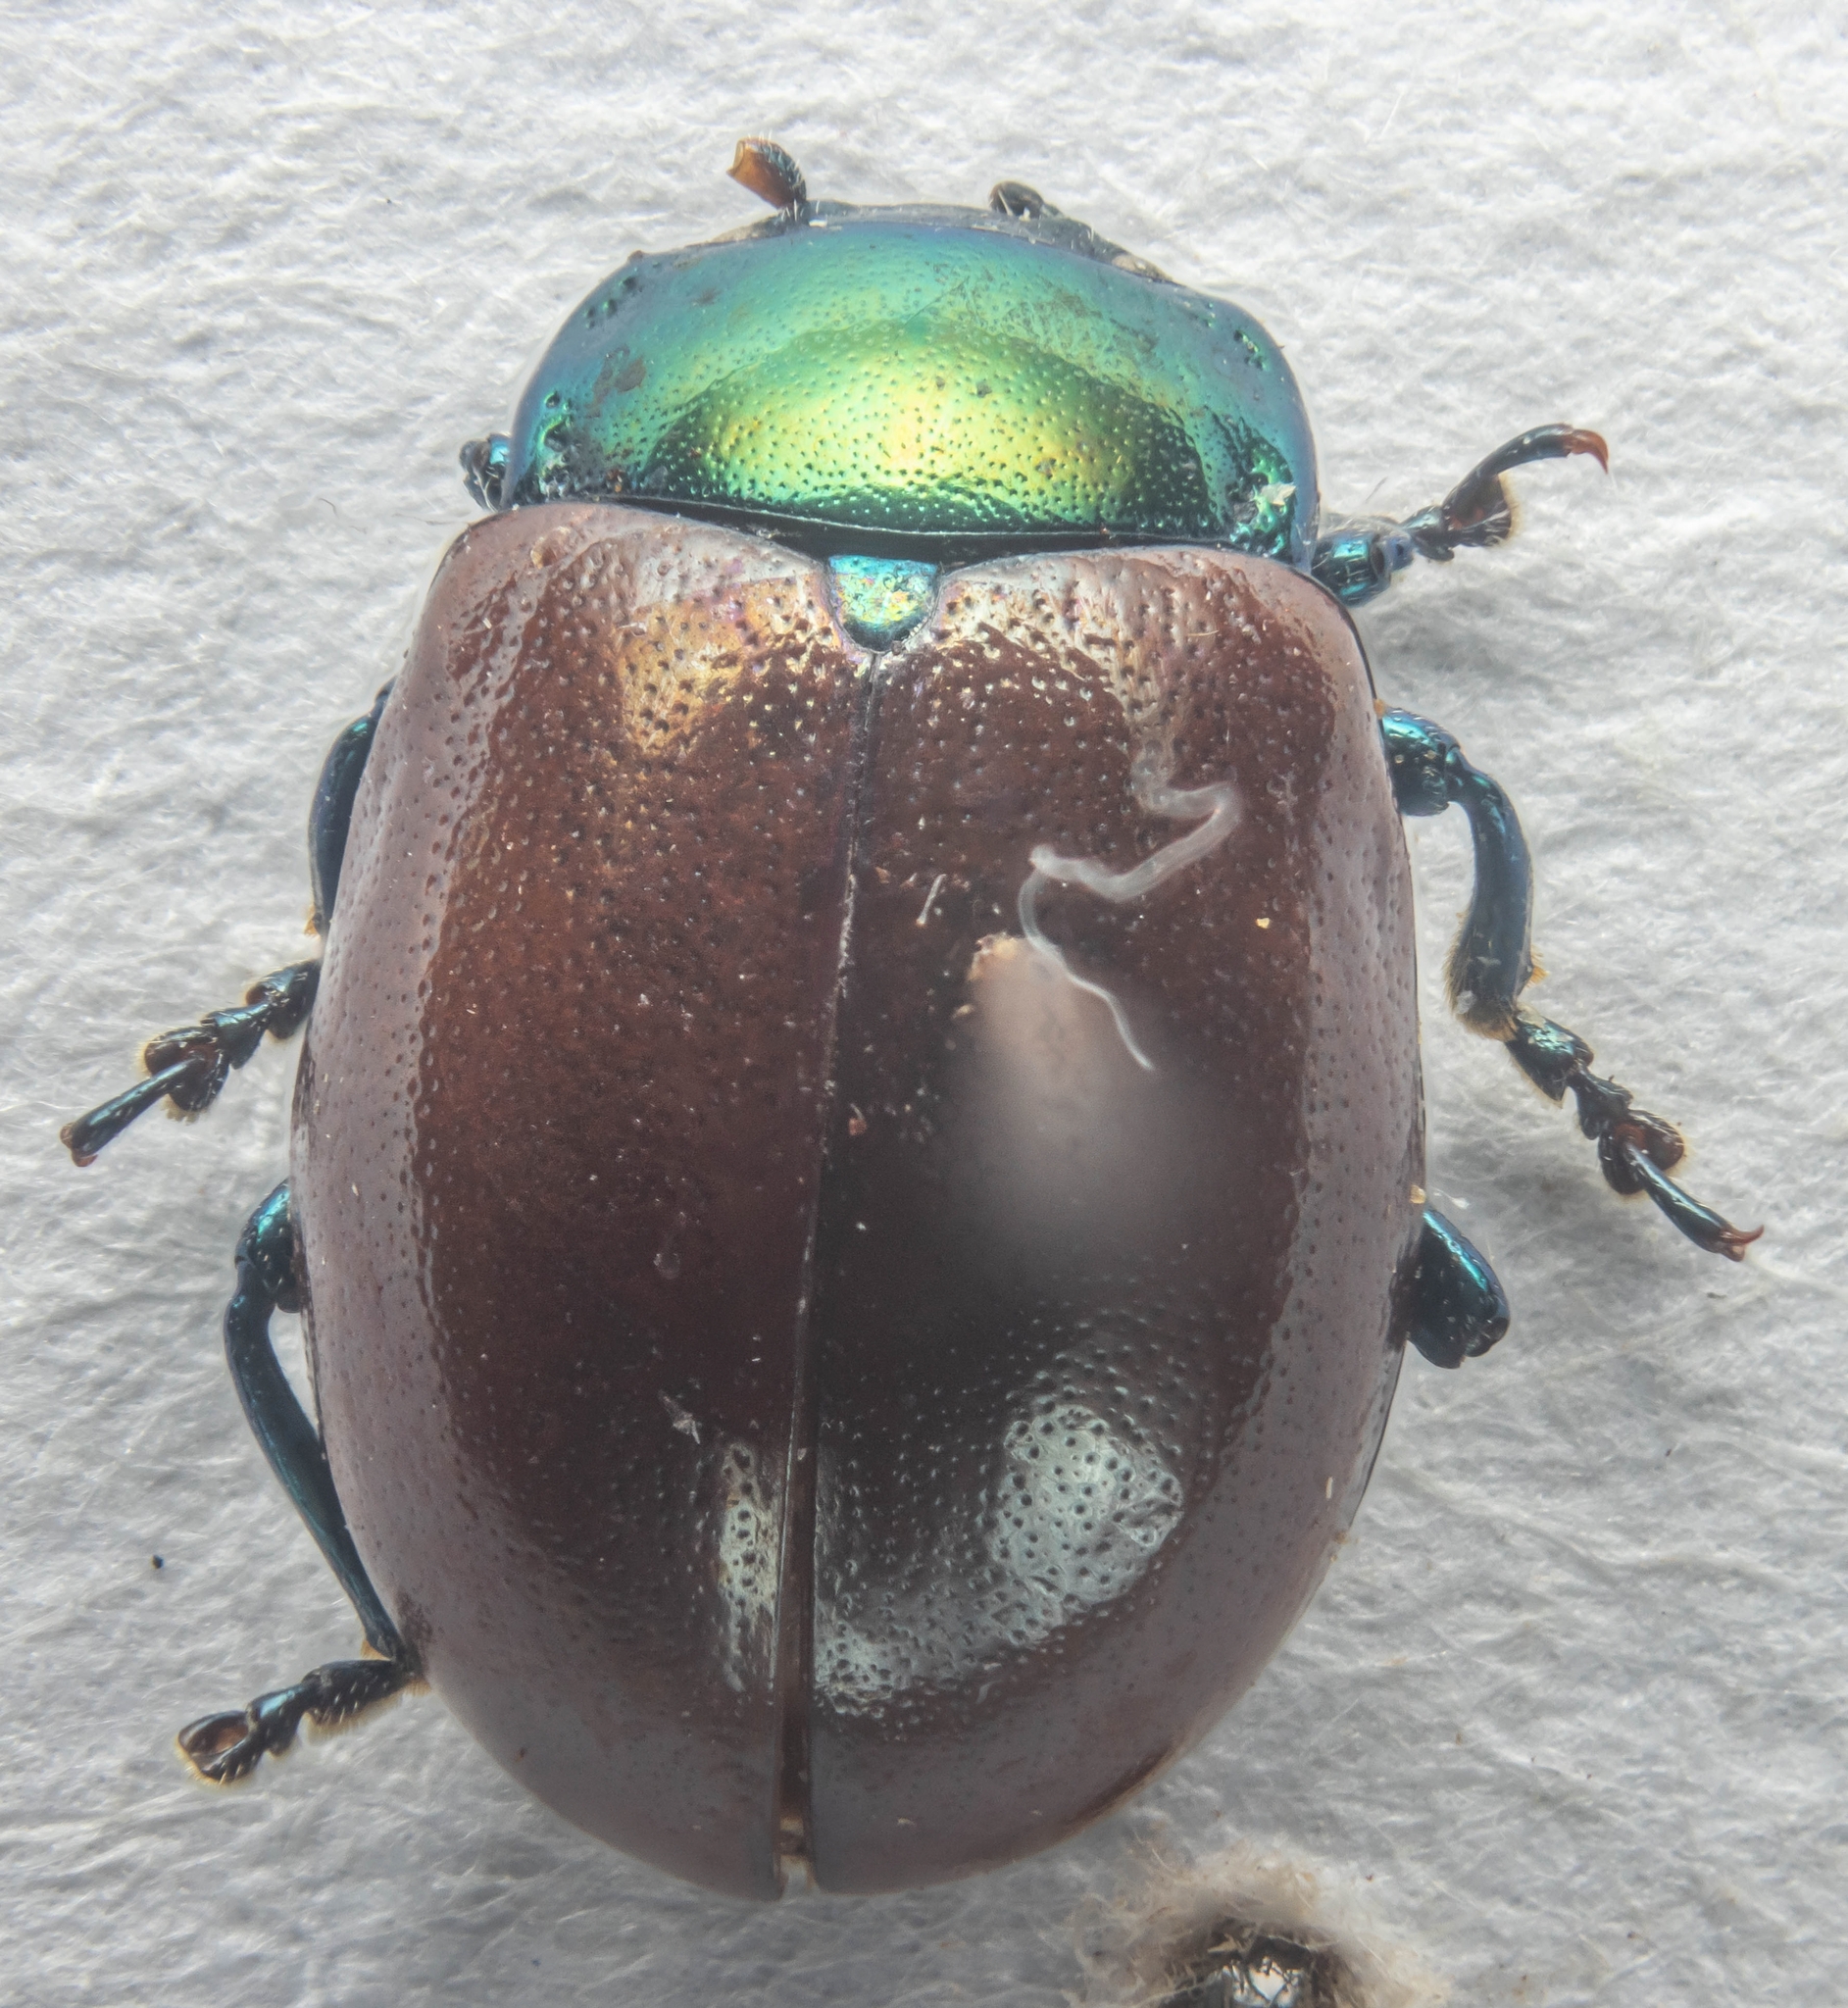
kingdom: Animalia
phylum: Arthropoda
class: Insecta
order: Coleoptera
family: Chrysomelidae
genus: Chrysomela
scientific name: Chrysomela polita
